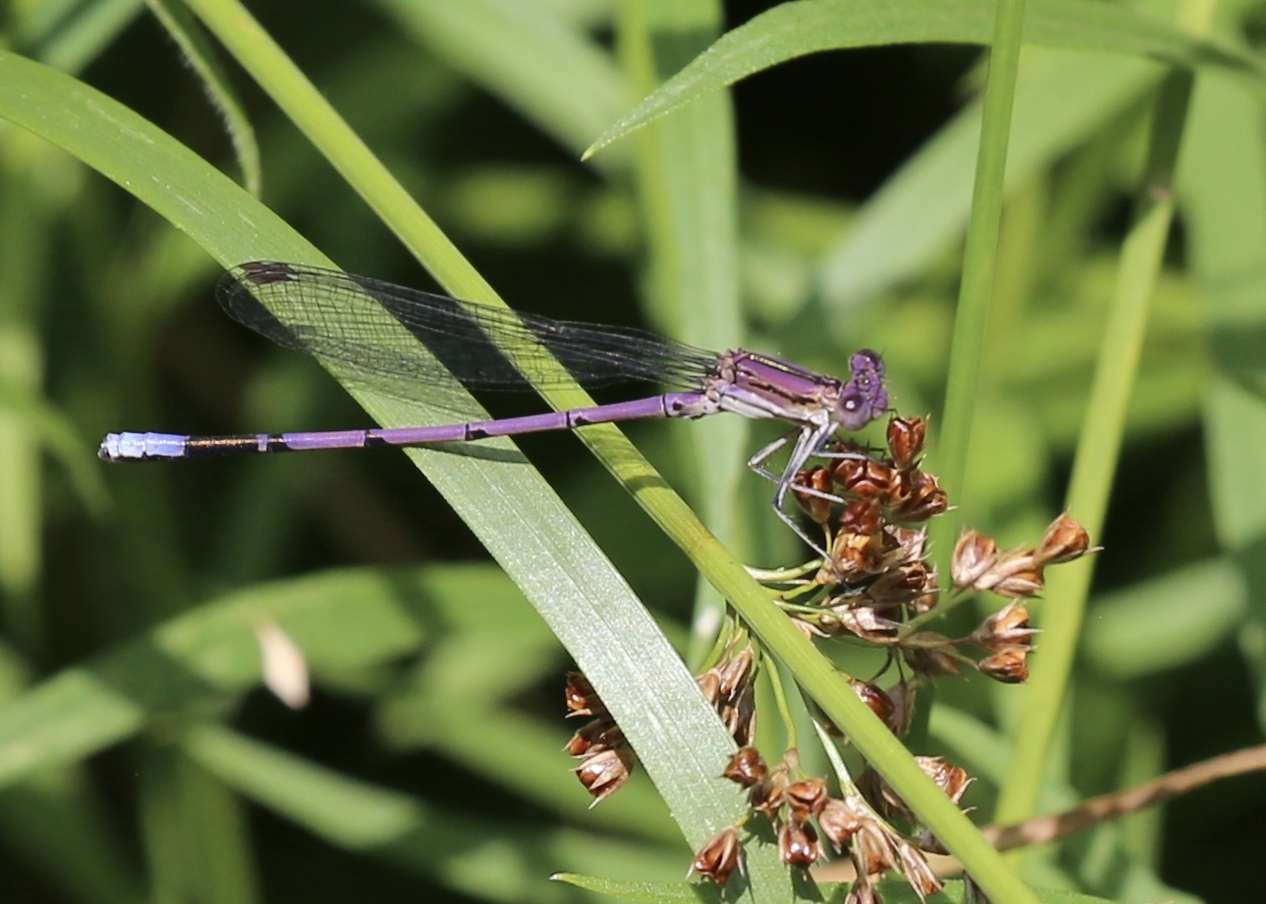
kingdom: Animalia
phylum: Arthropoda
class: Insecta
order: Odonata
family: Coenagrionidae
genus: Argia
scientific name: Argia fumipennis
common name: Variable dancer
